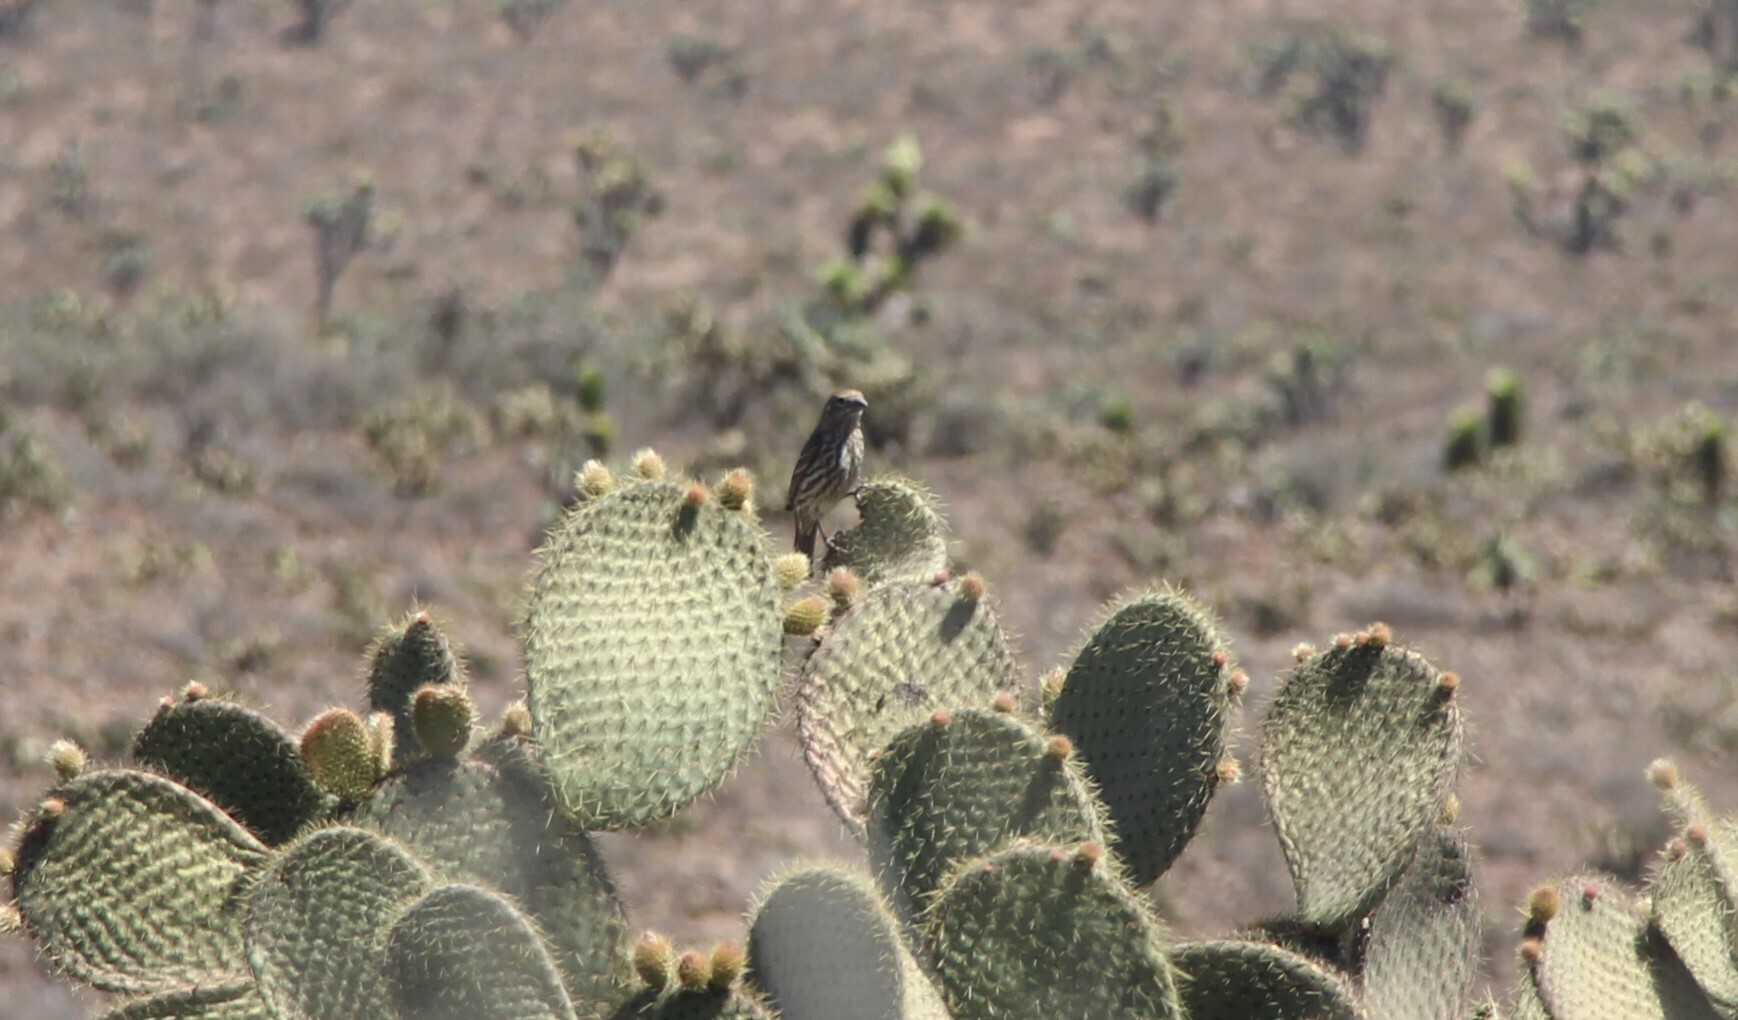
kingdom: Animalia
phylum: Chordata
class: Aves
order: Passeriformes
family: Fringillidae
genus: Haemorhous
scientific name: Haemorhous mexicanus
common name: House finch
